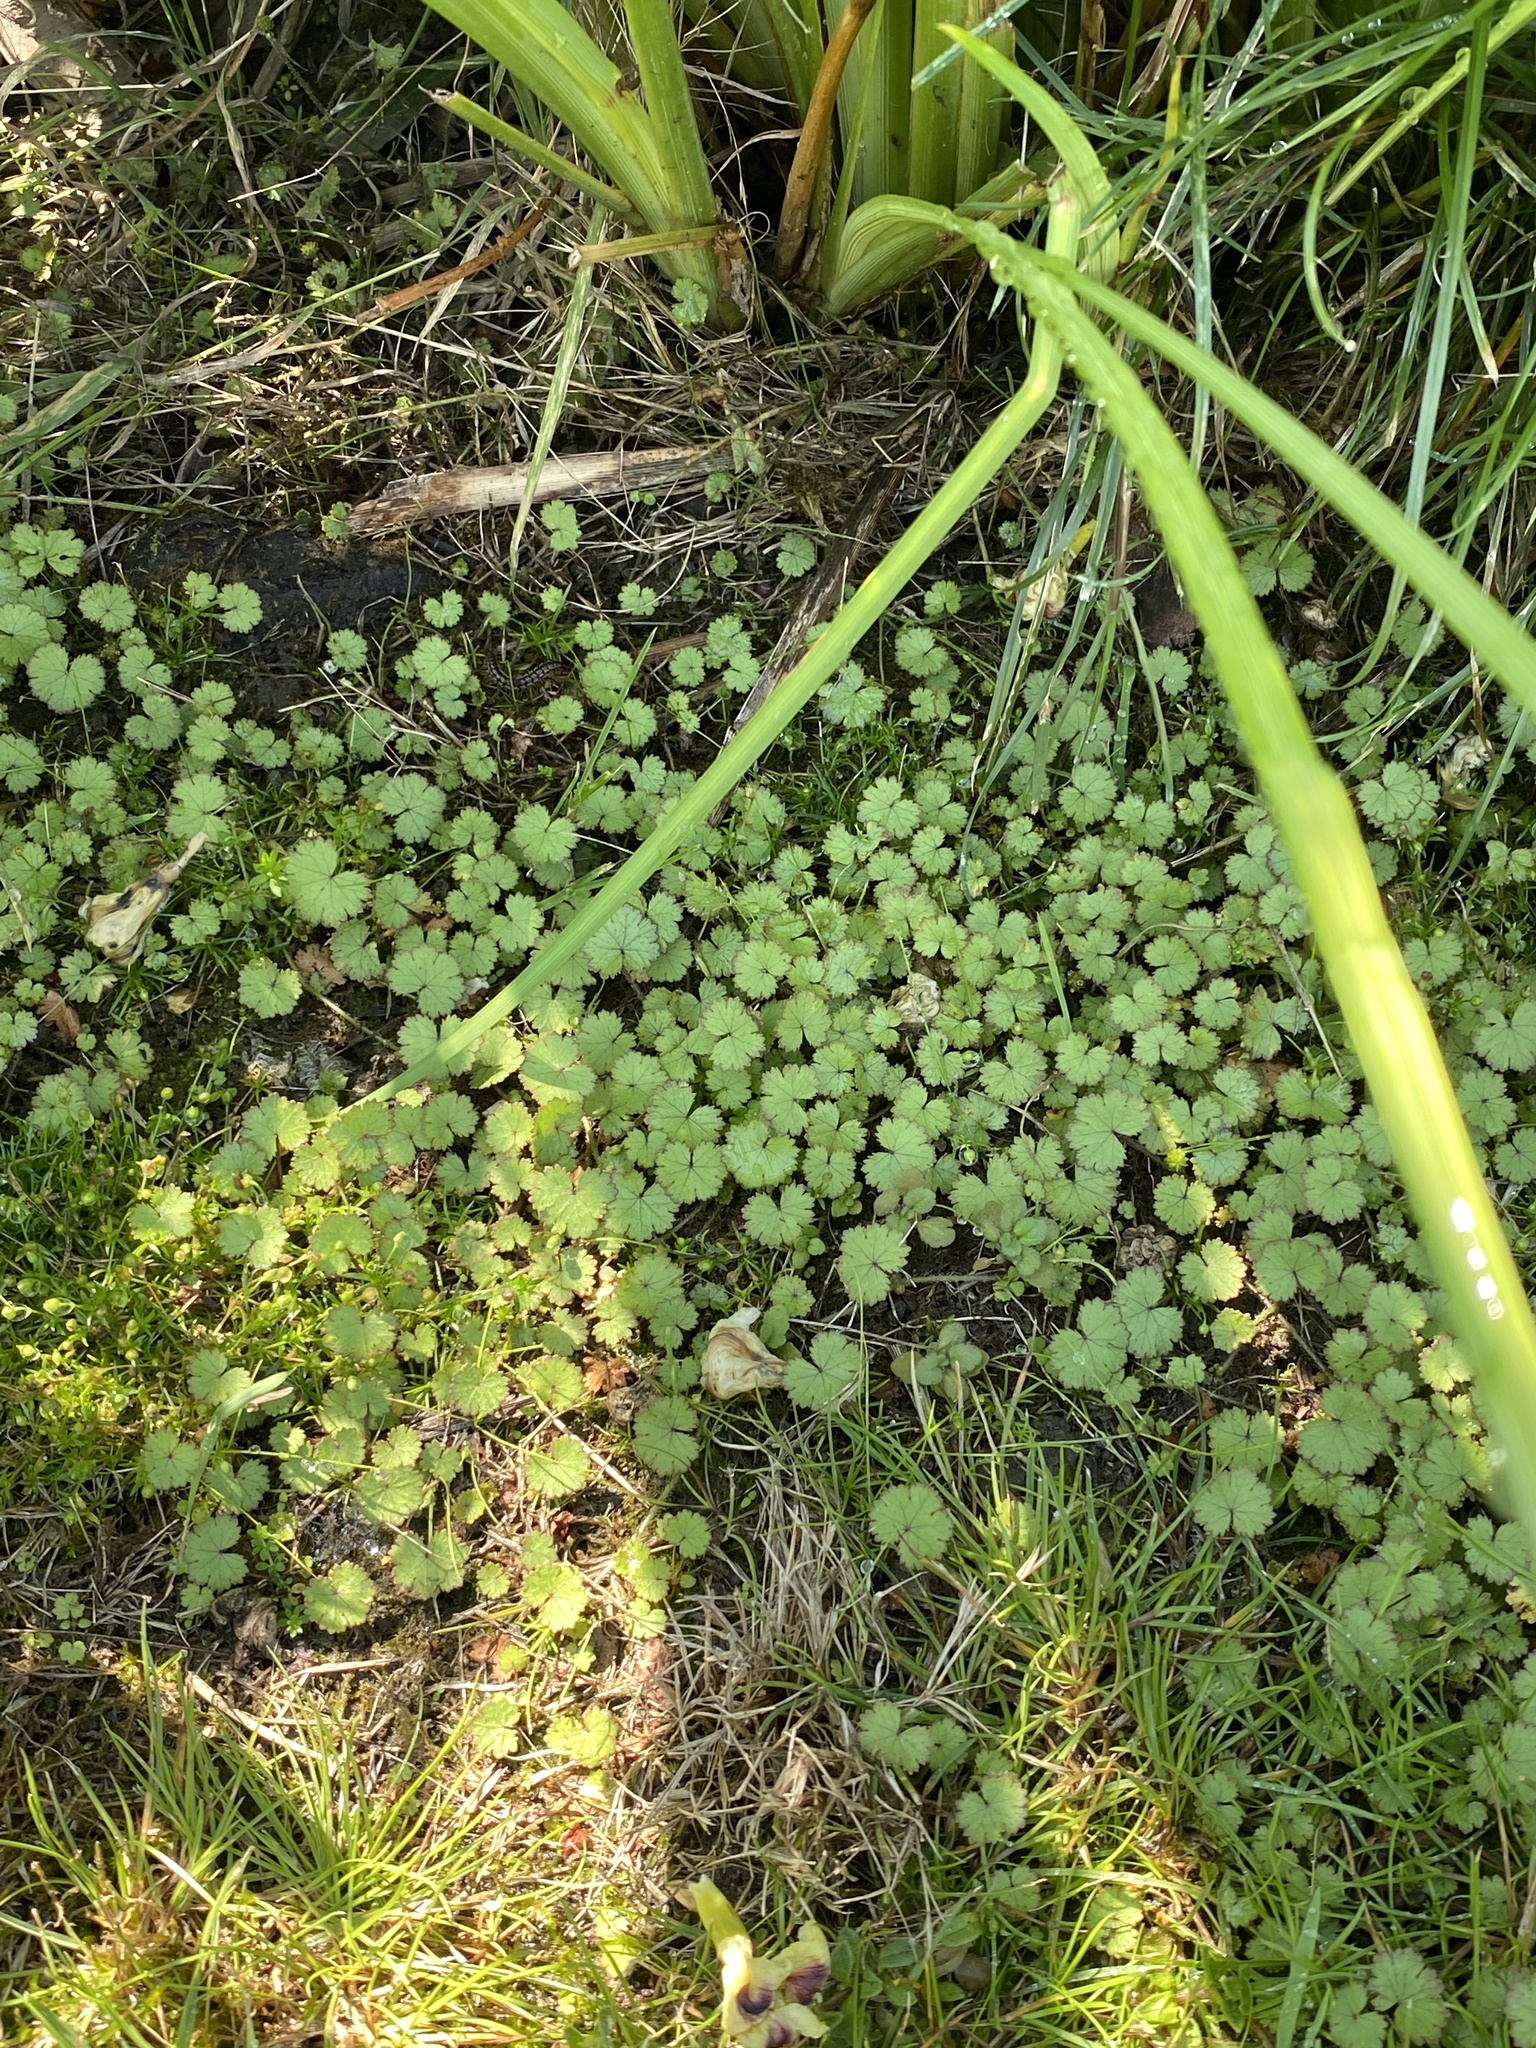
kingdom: Plantae
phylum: Tracheophyta
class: Magnoliopsida
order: Apiales
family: Araliaceae
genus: Hydrocotyle
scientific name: Hydrocotyle moschata
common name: Hairy pennywort
